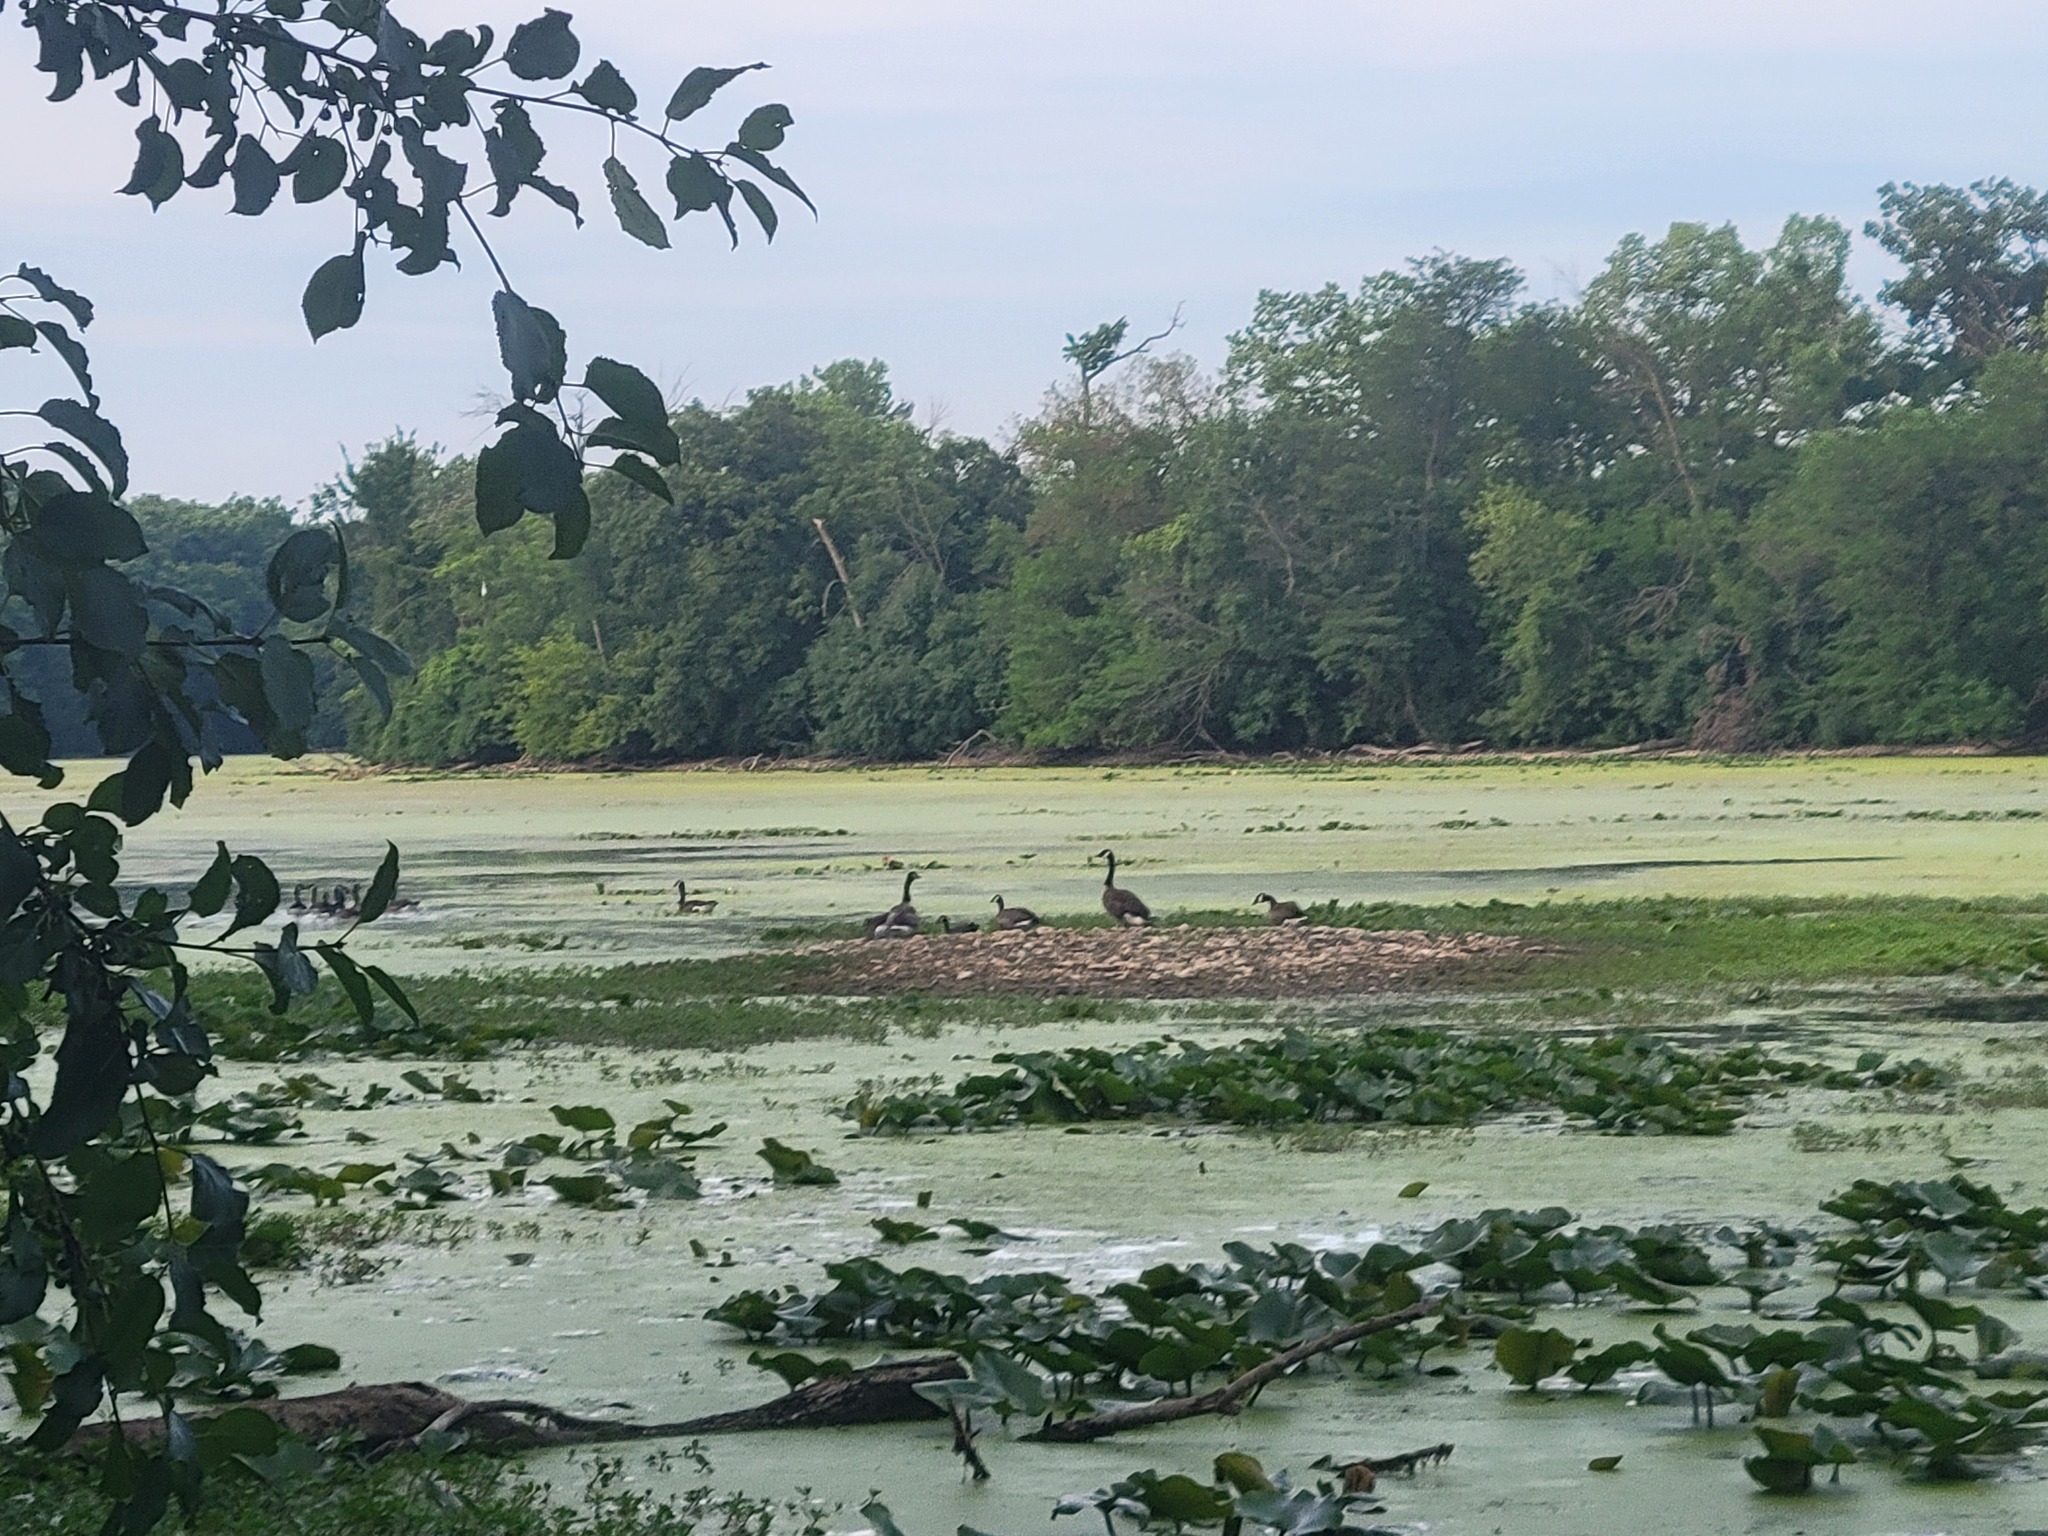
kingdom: Animalia
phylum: Chordata
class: Aves
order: Anseriformes
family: Anatidae
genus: Branta
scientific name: Branta canadensis
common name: Canada goose
